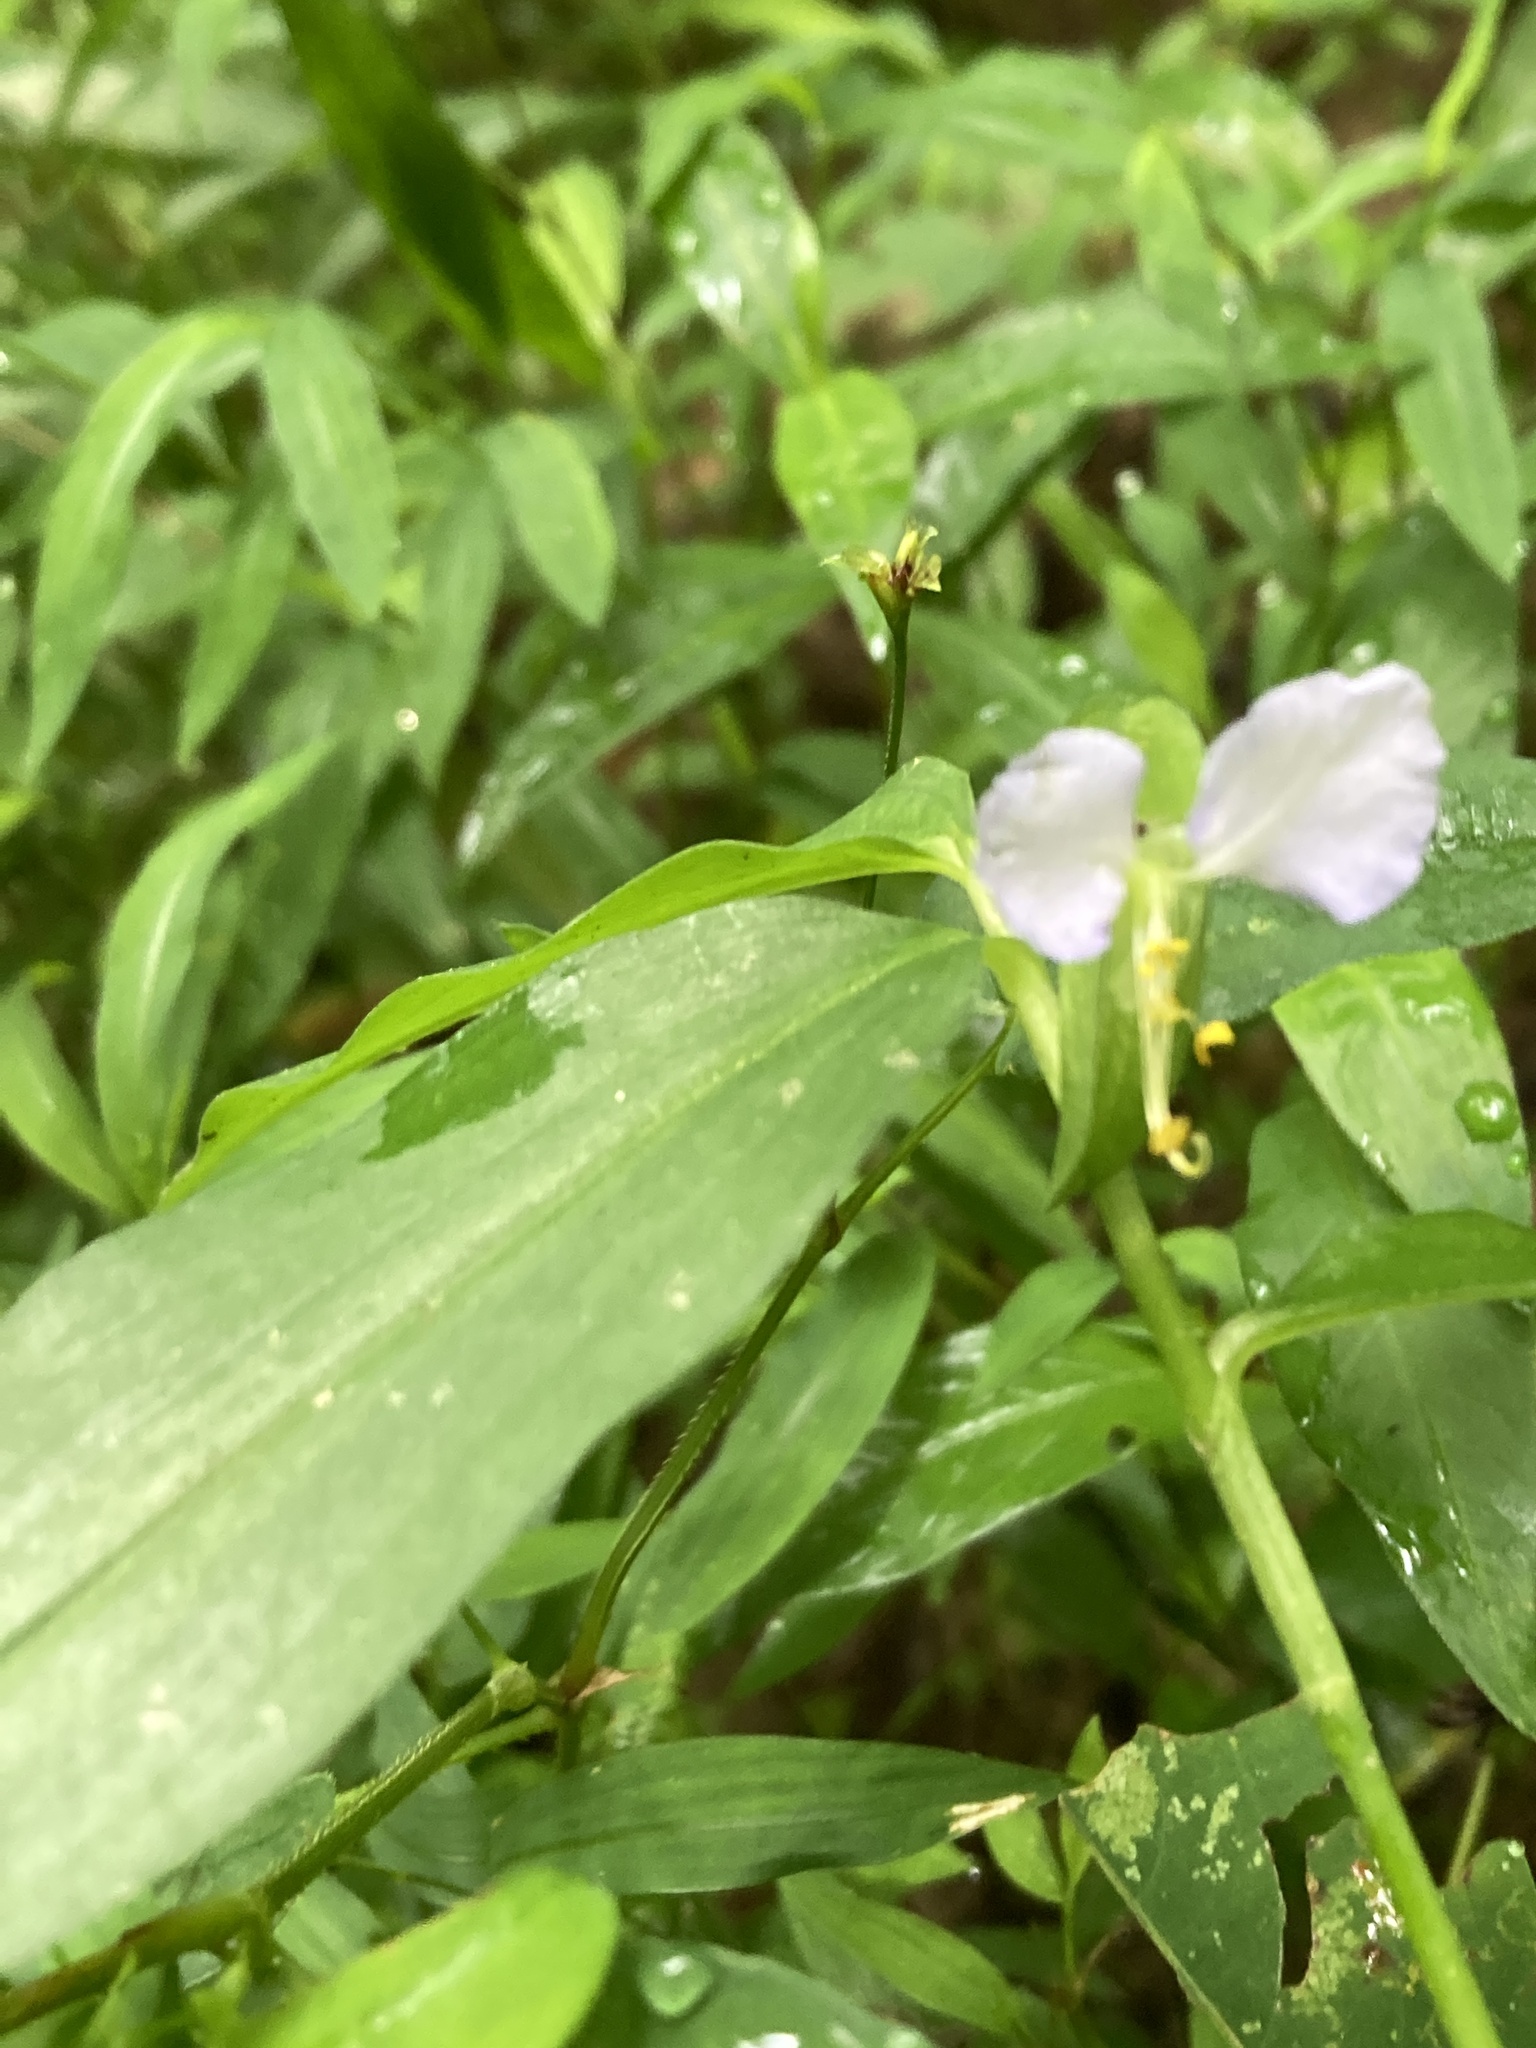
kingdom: Plantae
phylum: Tracheophyta
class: Liliopsida
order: Commelinales
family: Commelinaceae
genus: Commelina
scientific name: Commelina communis
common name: Asiatic dayflower
